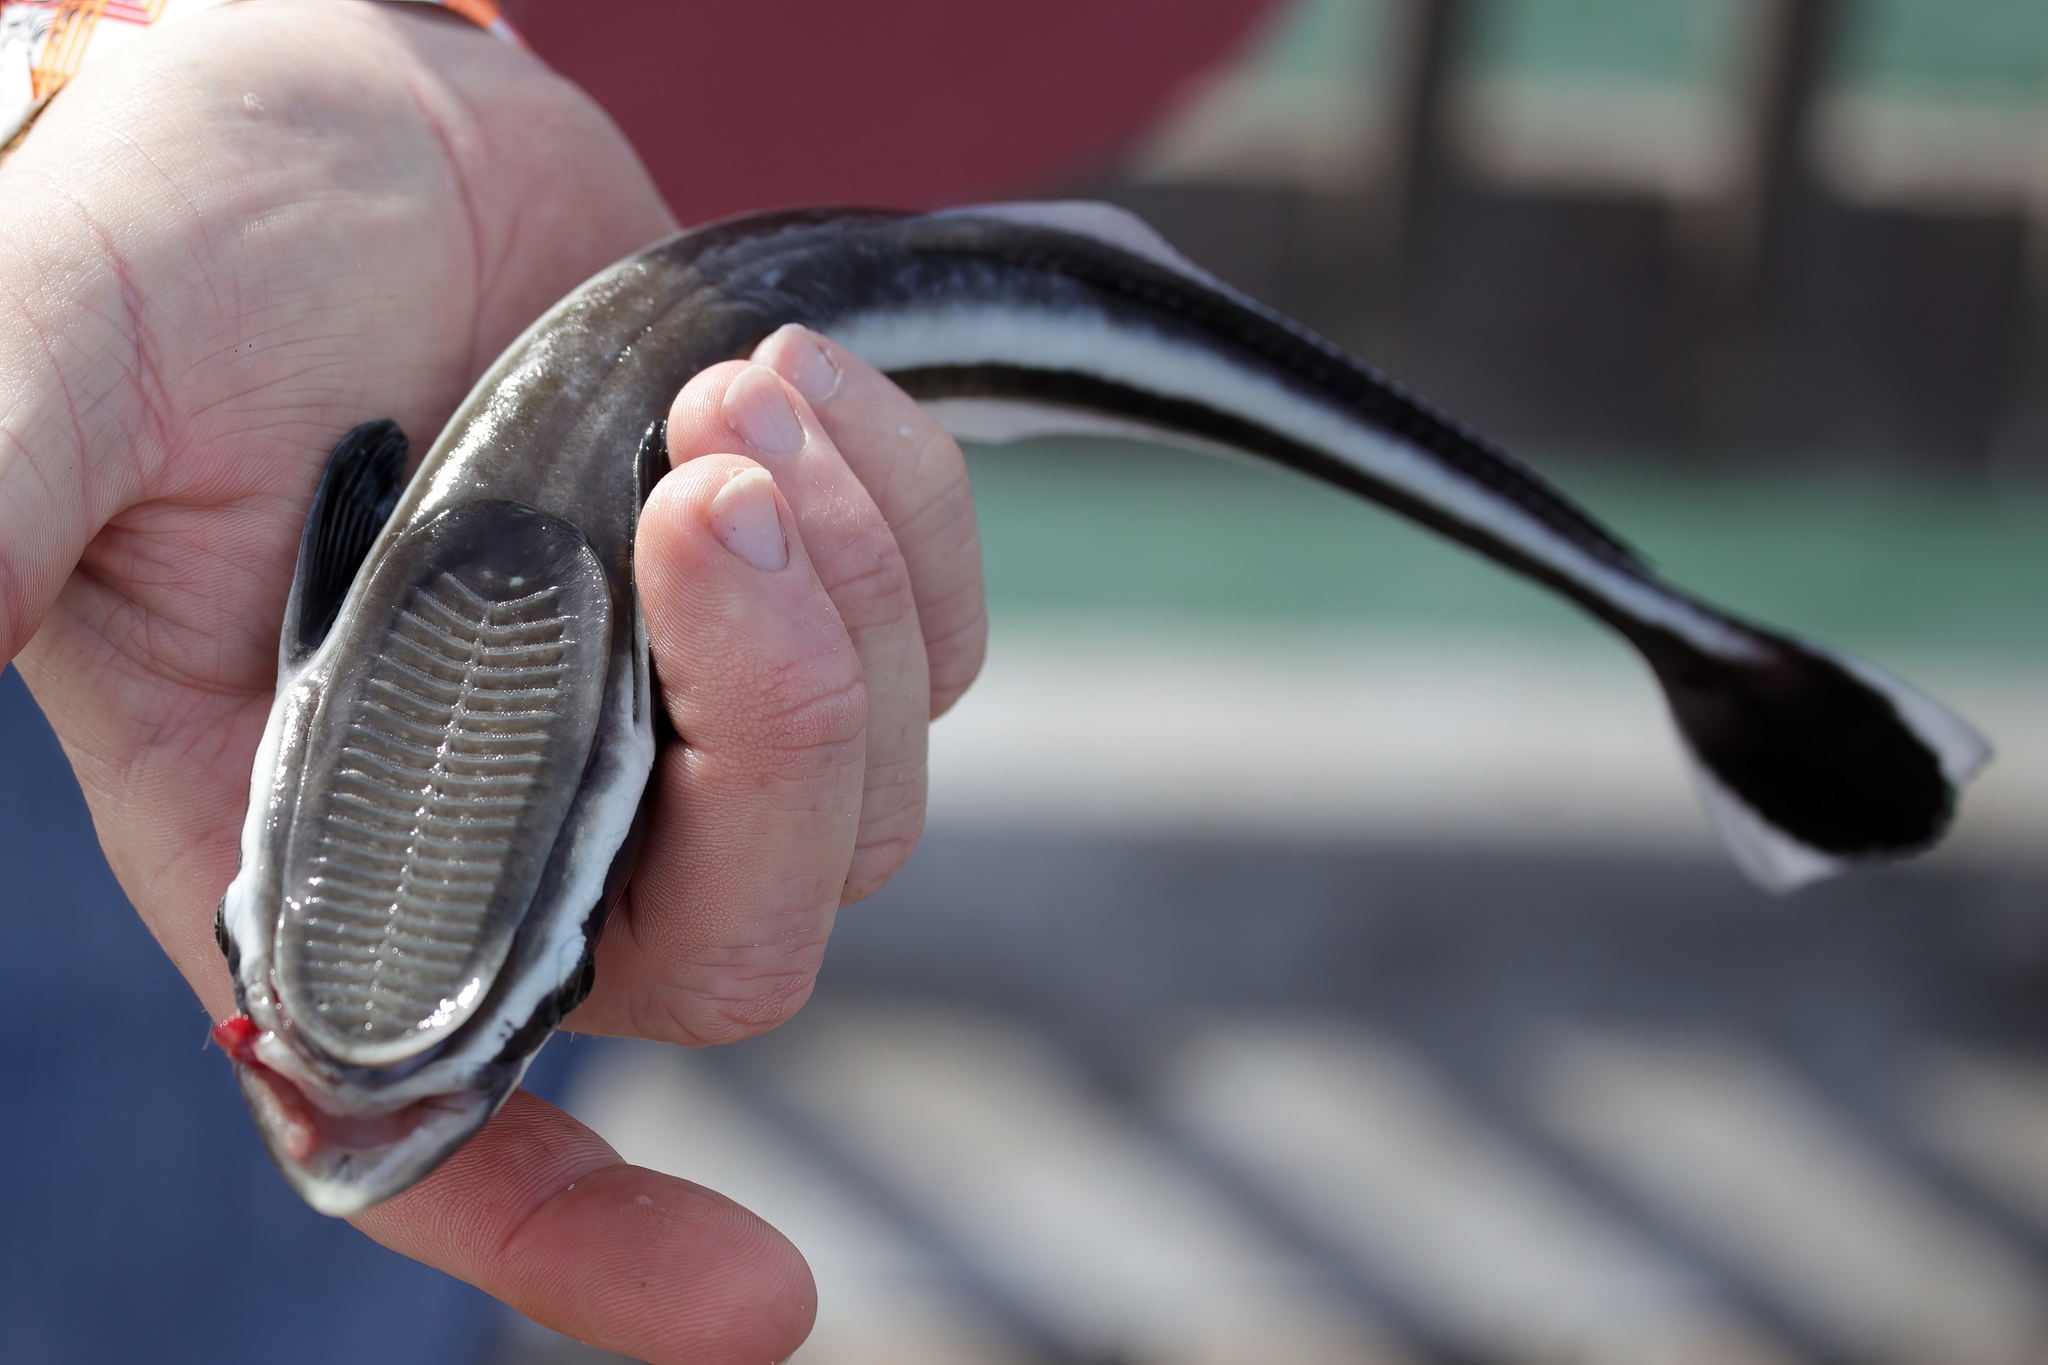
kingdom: Animalia
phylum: Chordata
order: Perciformes
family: Echeneidae
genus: Echeneis
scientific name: Echeneis naucrates
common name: Sharksucker
